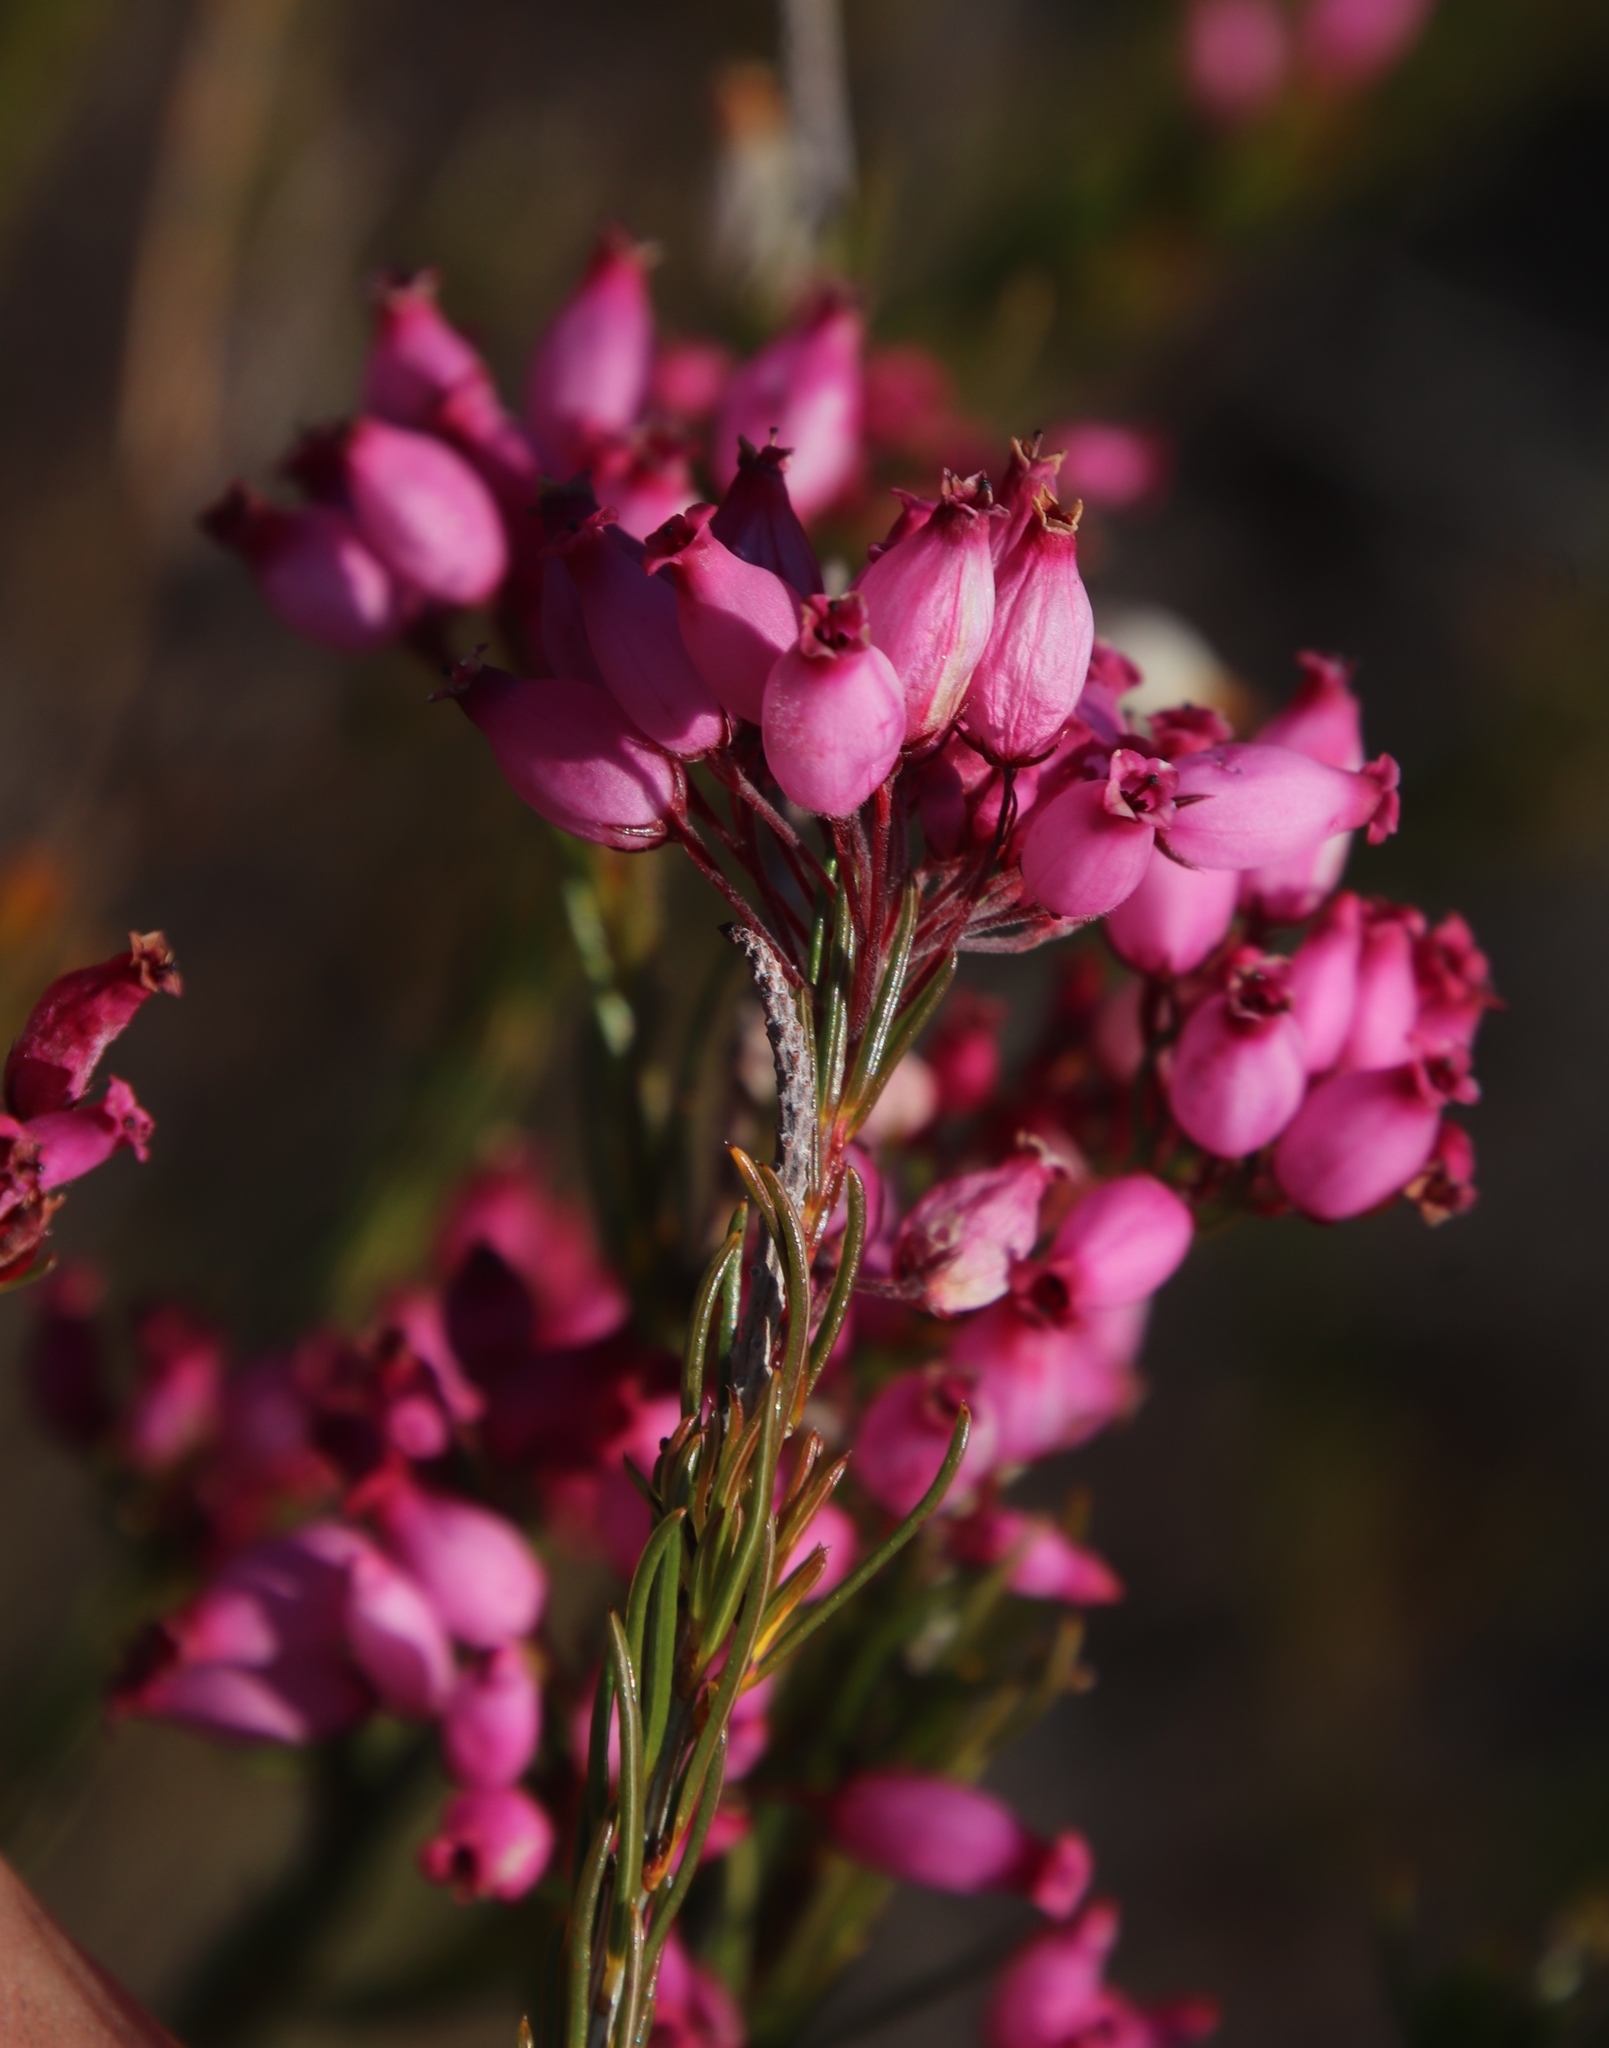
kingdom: Plantae
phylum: Tracheophyta
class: Magnoliopsida
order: Ericales
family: Ericaceae
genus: Erica
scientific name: Erica inflata
